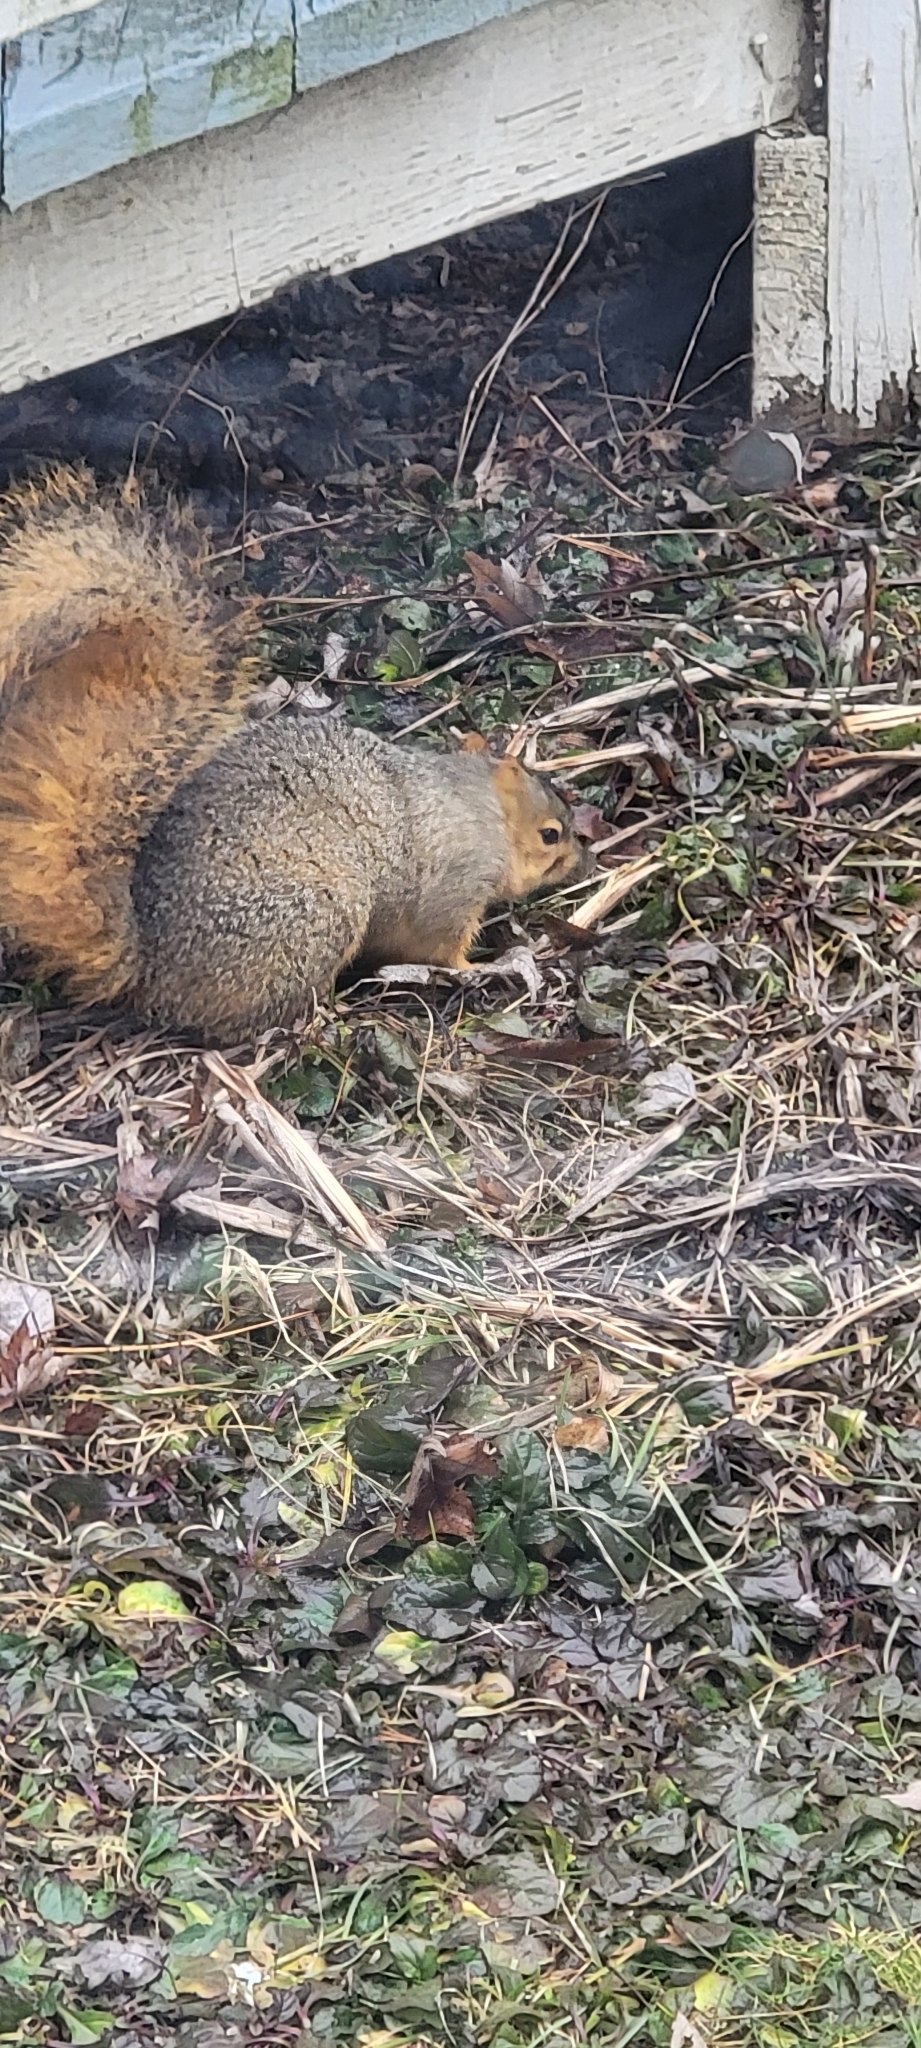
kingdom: Animalia
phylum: Chordata
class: Mammalia
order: Rodentia
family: Sciuridae
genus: Sciurus
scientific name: Sciurus niger
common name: Fox squirrel
